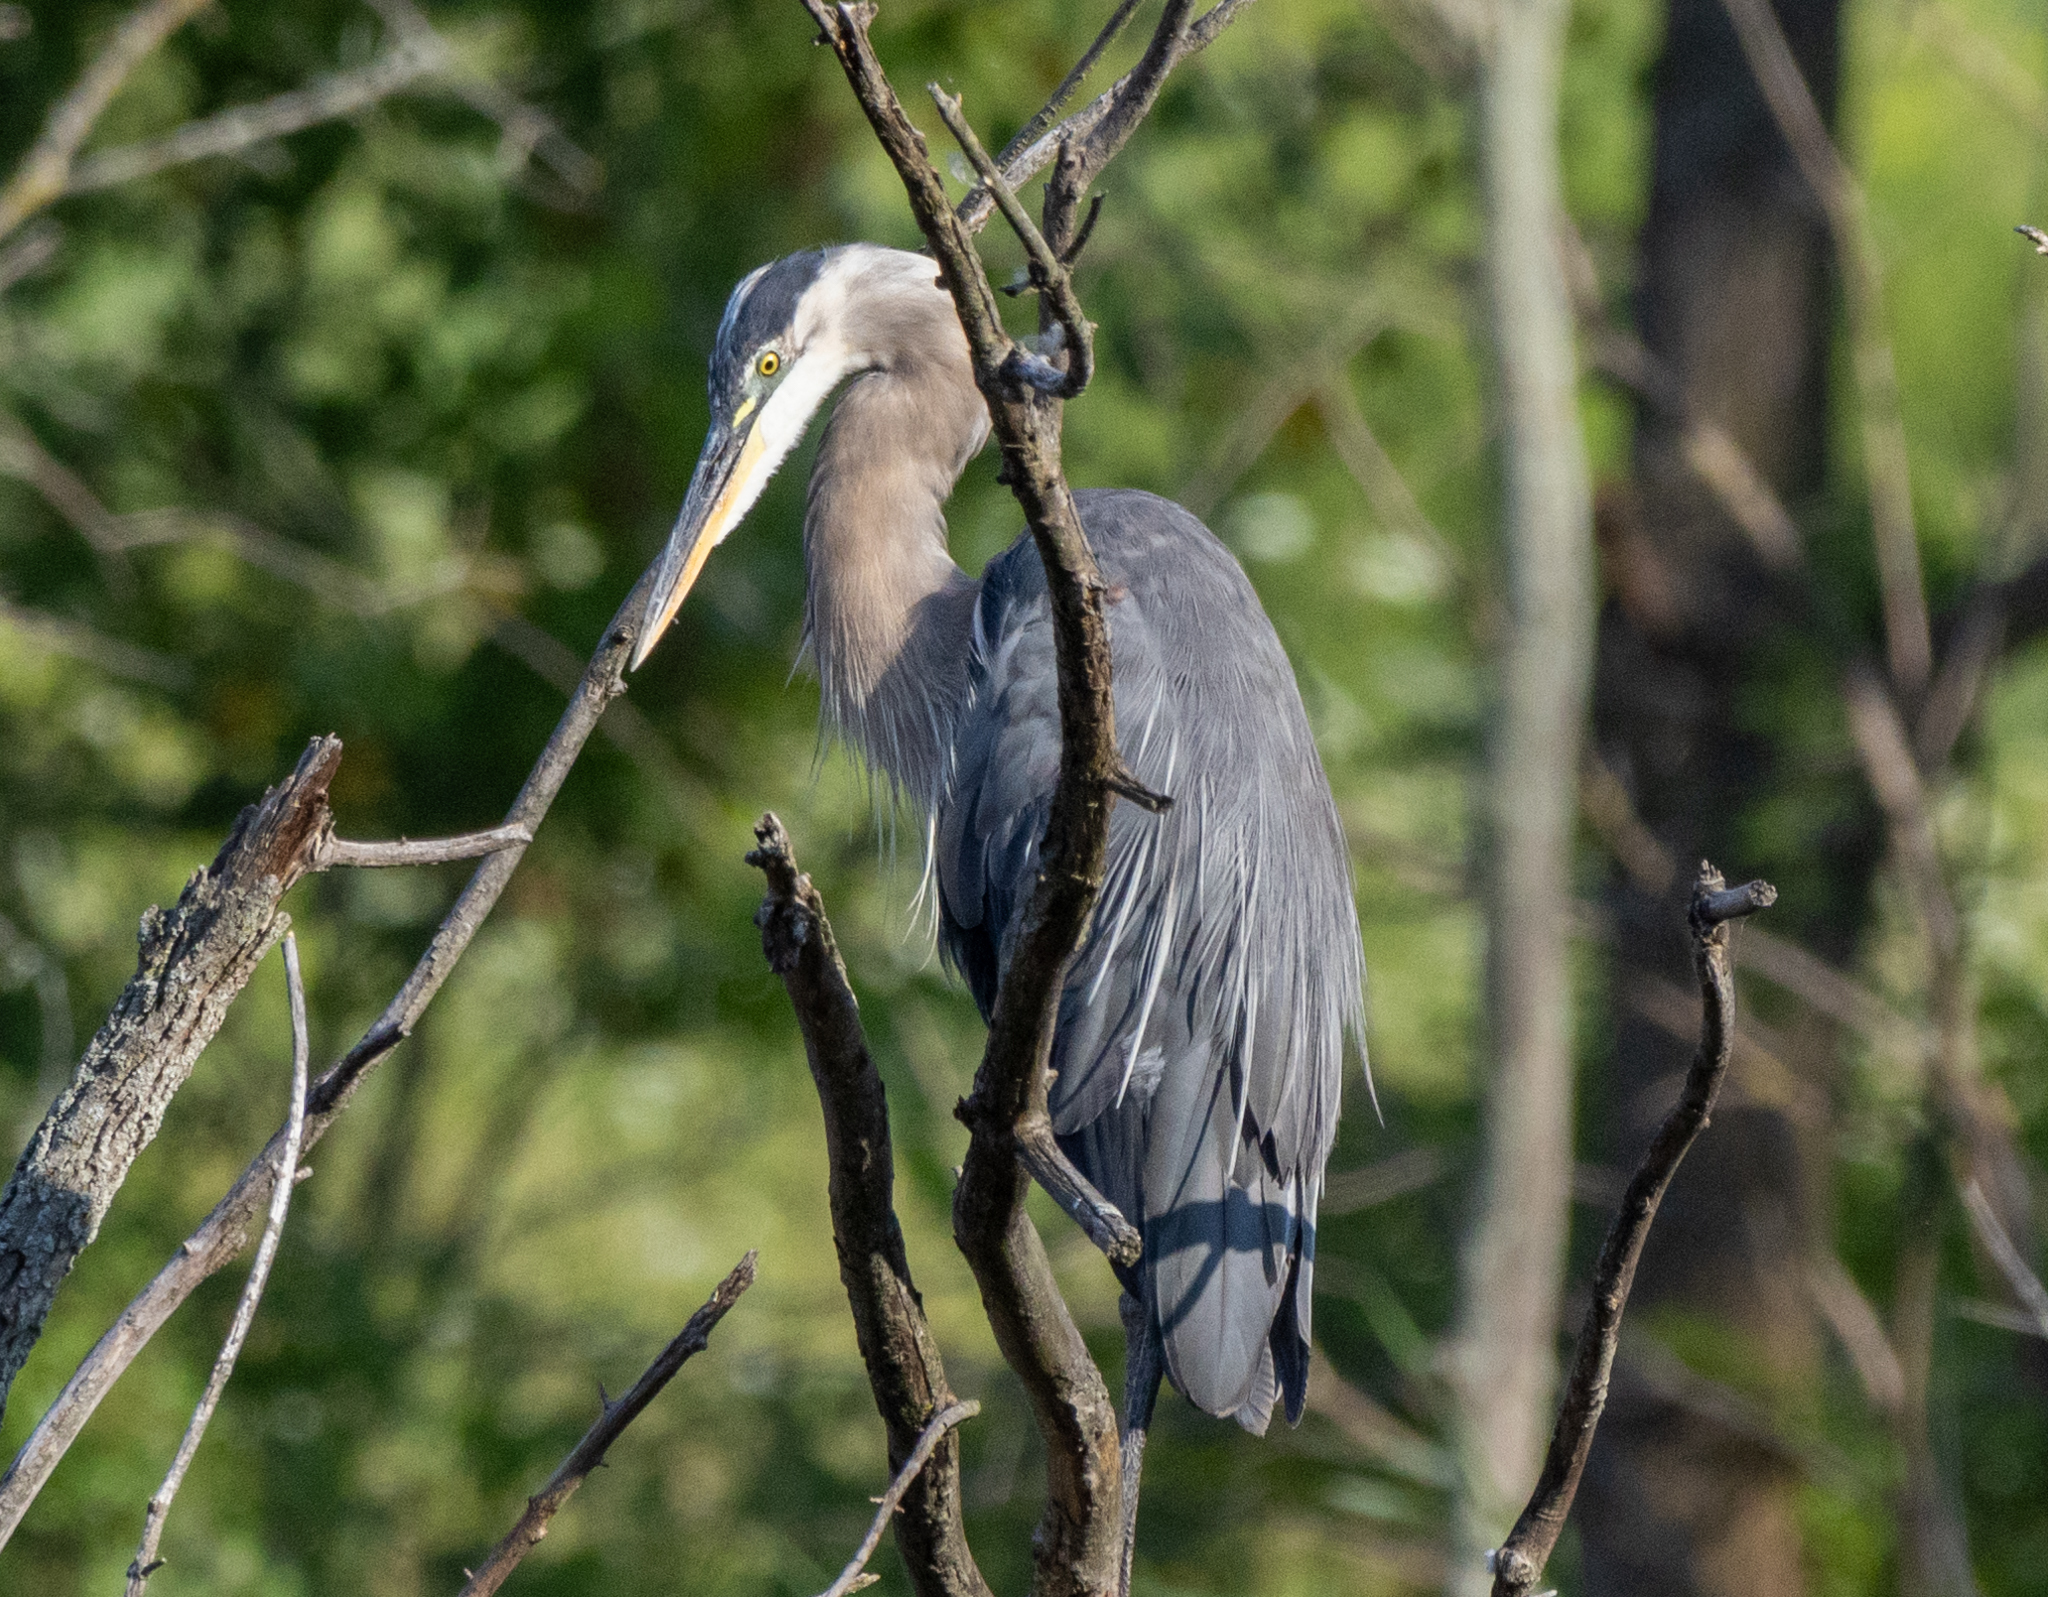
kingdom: Animalia
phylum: Chordata
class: Aves
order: Pelecaniformes
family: Ardeidae
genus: Ardea
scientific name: Ardea herodias
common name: Great blue heron
